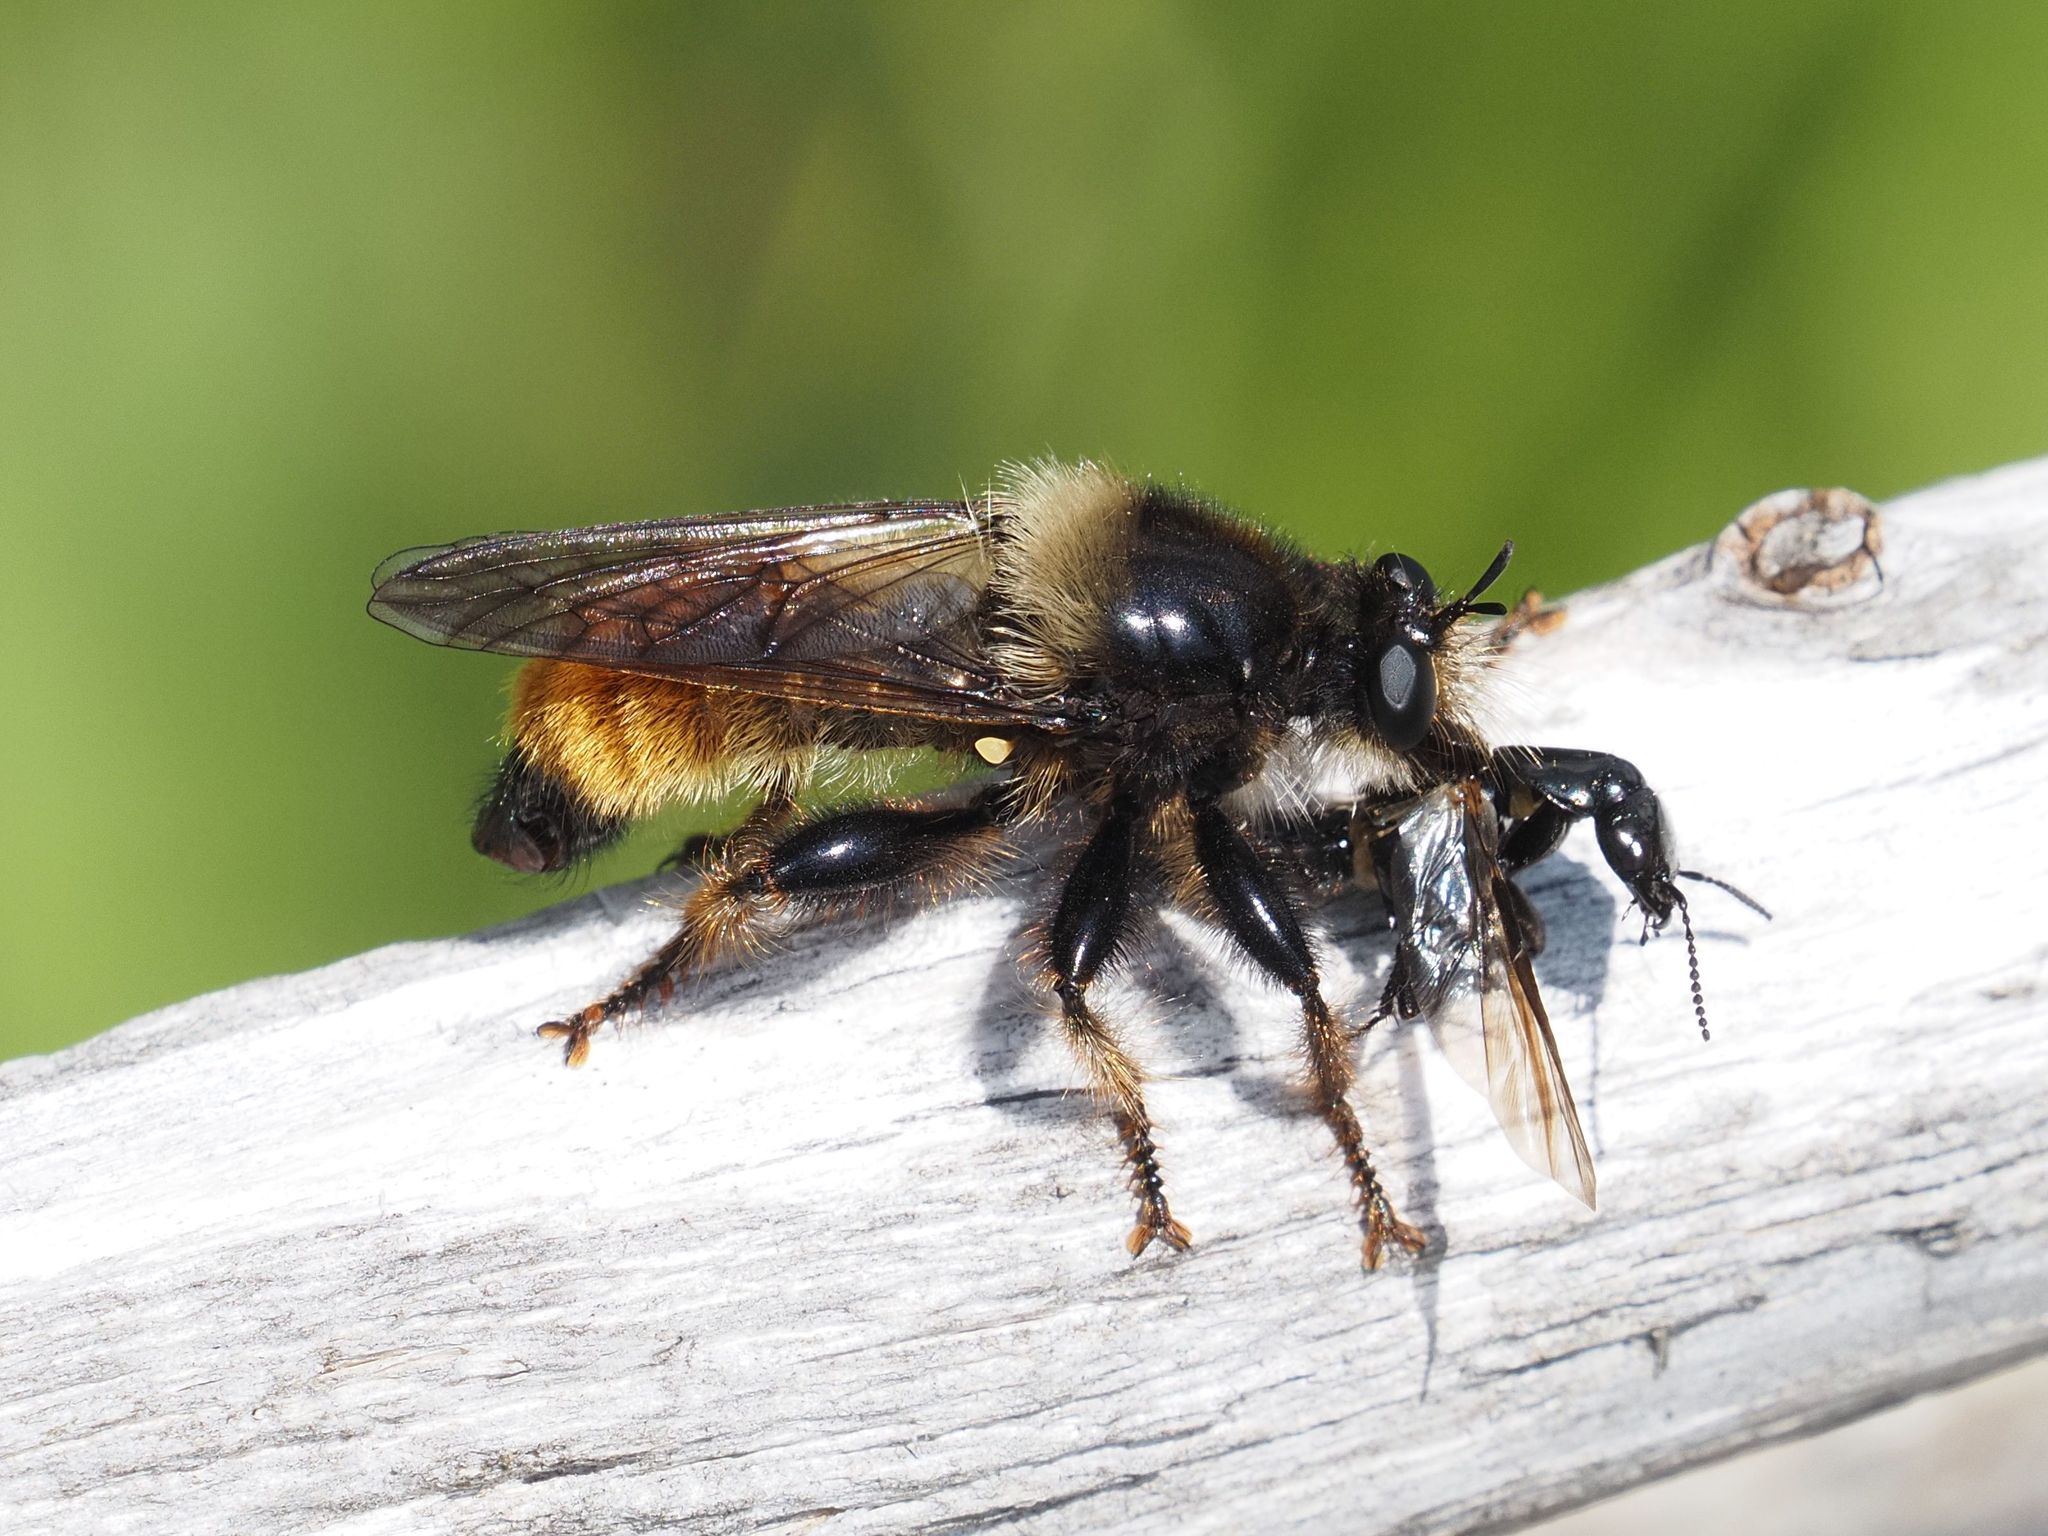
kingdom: Animalia
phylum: Arthropoda
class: Insecta
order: Diptera
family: Asilidae
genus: Laphria
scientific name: Laphria flava
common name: Bumblebee robberfly
